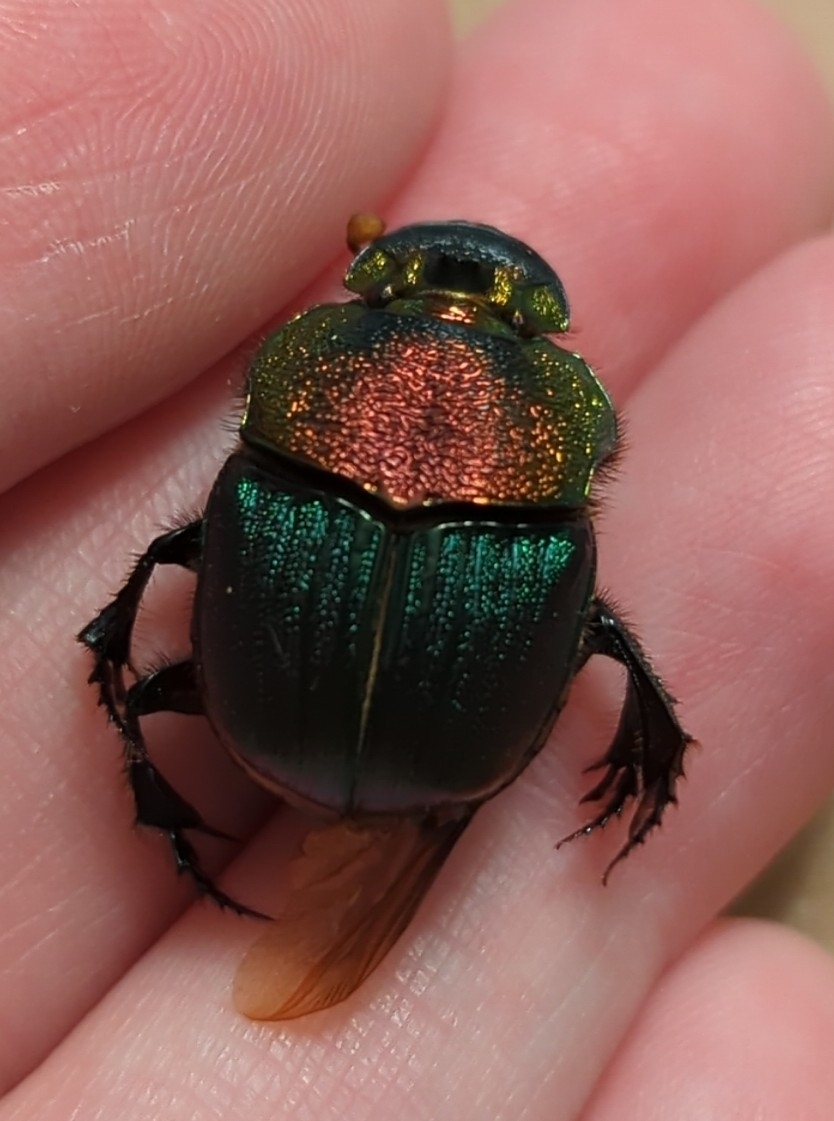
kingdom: Animalia
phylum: Arthropoda
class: Insecta
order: Coleoptera
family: Scarabaeidae
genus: Phanaeus
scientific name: Phanaeus vindex
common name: Rainbow scarab
